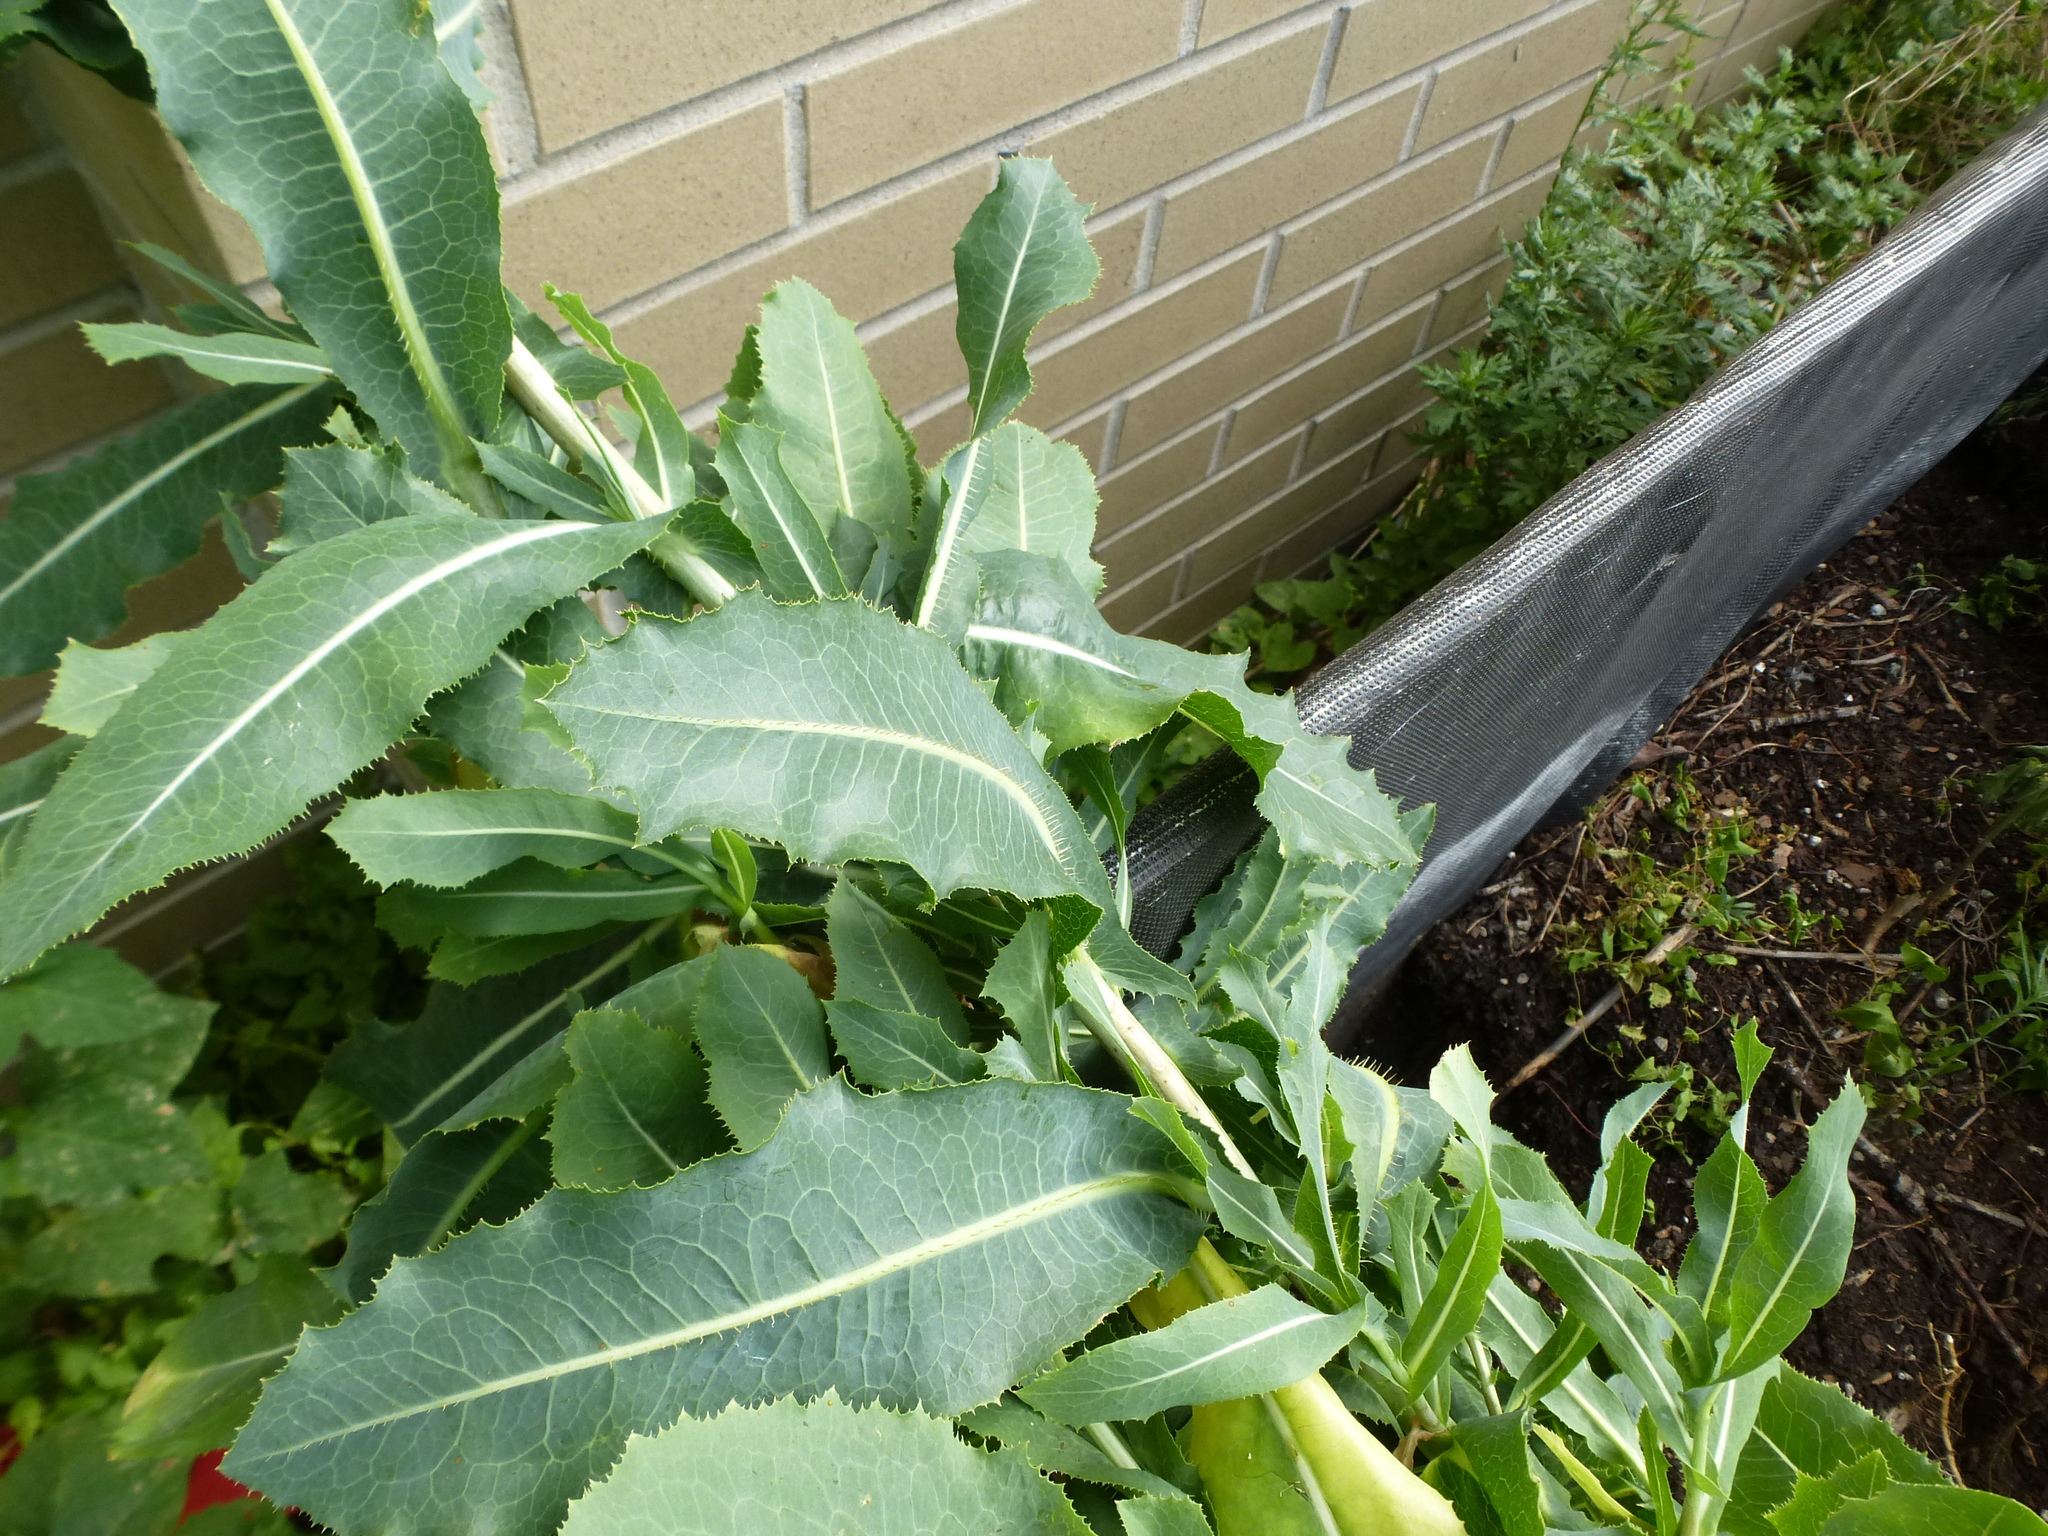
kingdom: Plantae
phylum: Tracheophyta
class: Magnoliopsida
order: Asterales
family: Asteraceae
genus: Lactuca
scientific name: Lactuca serriola
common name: Prickly lettuce
